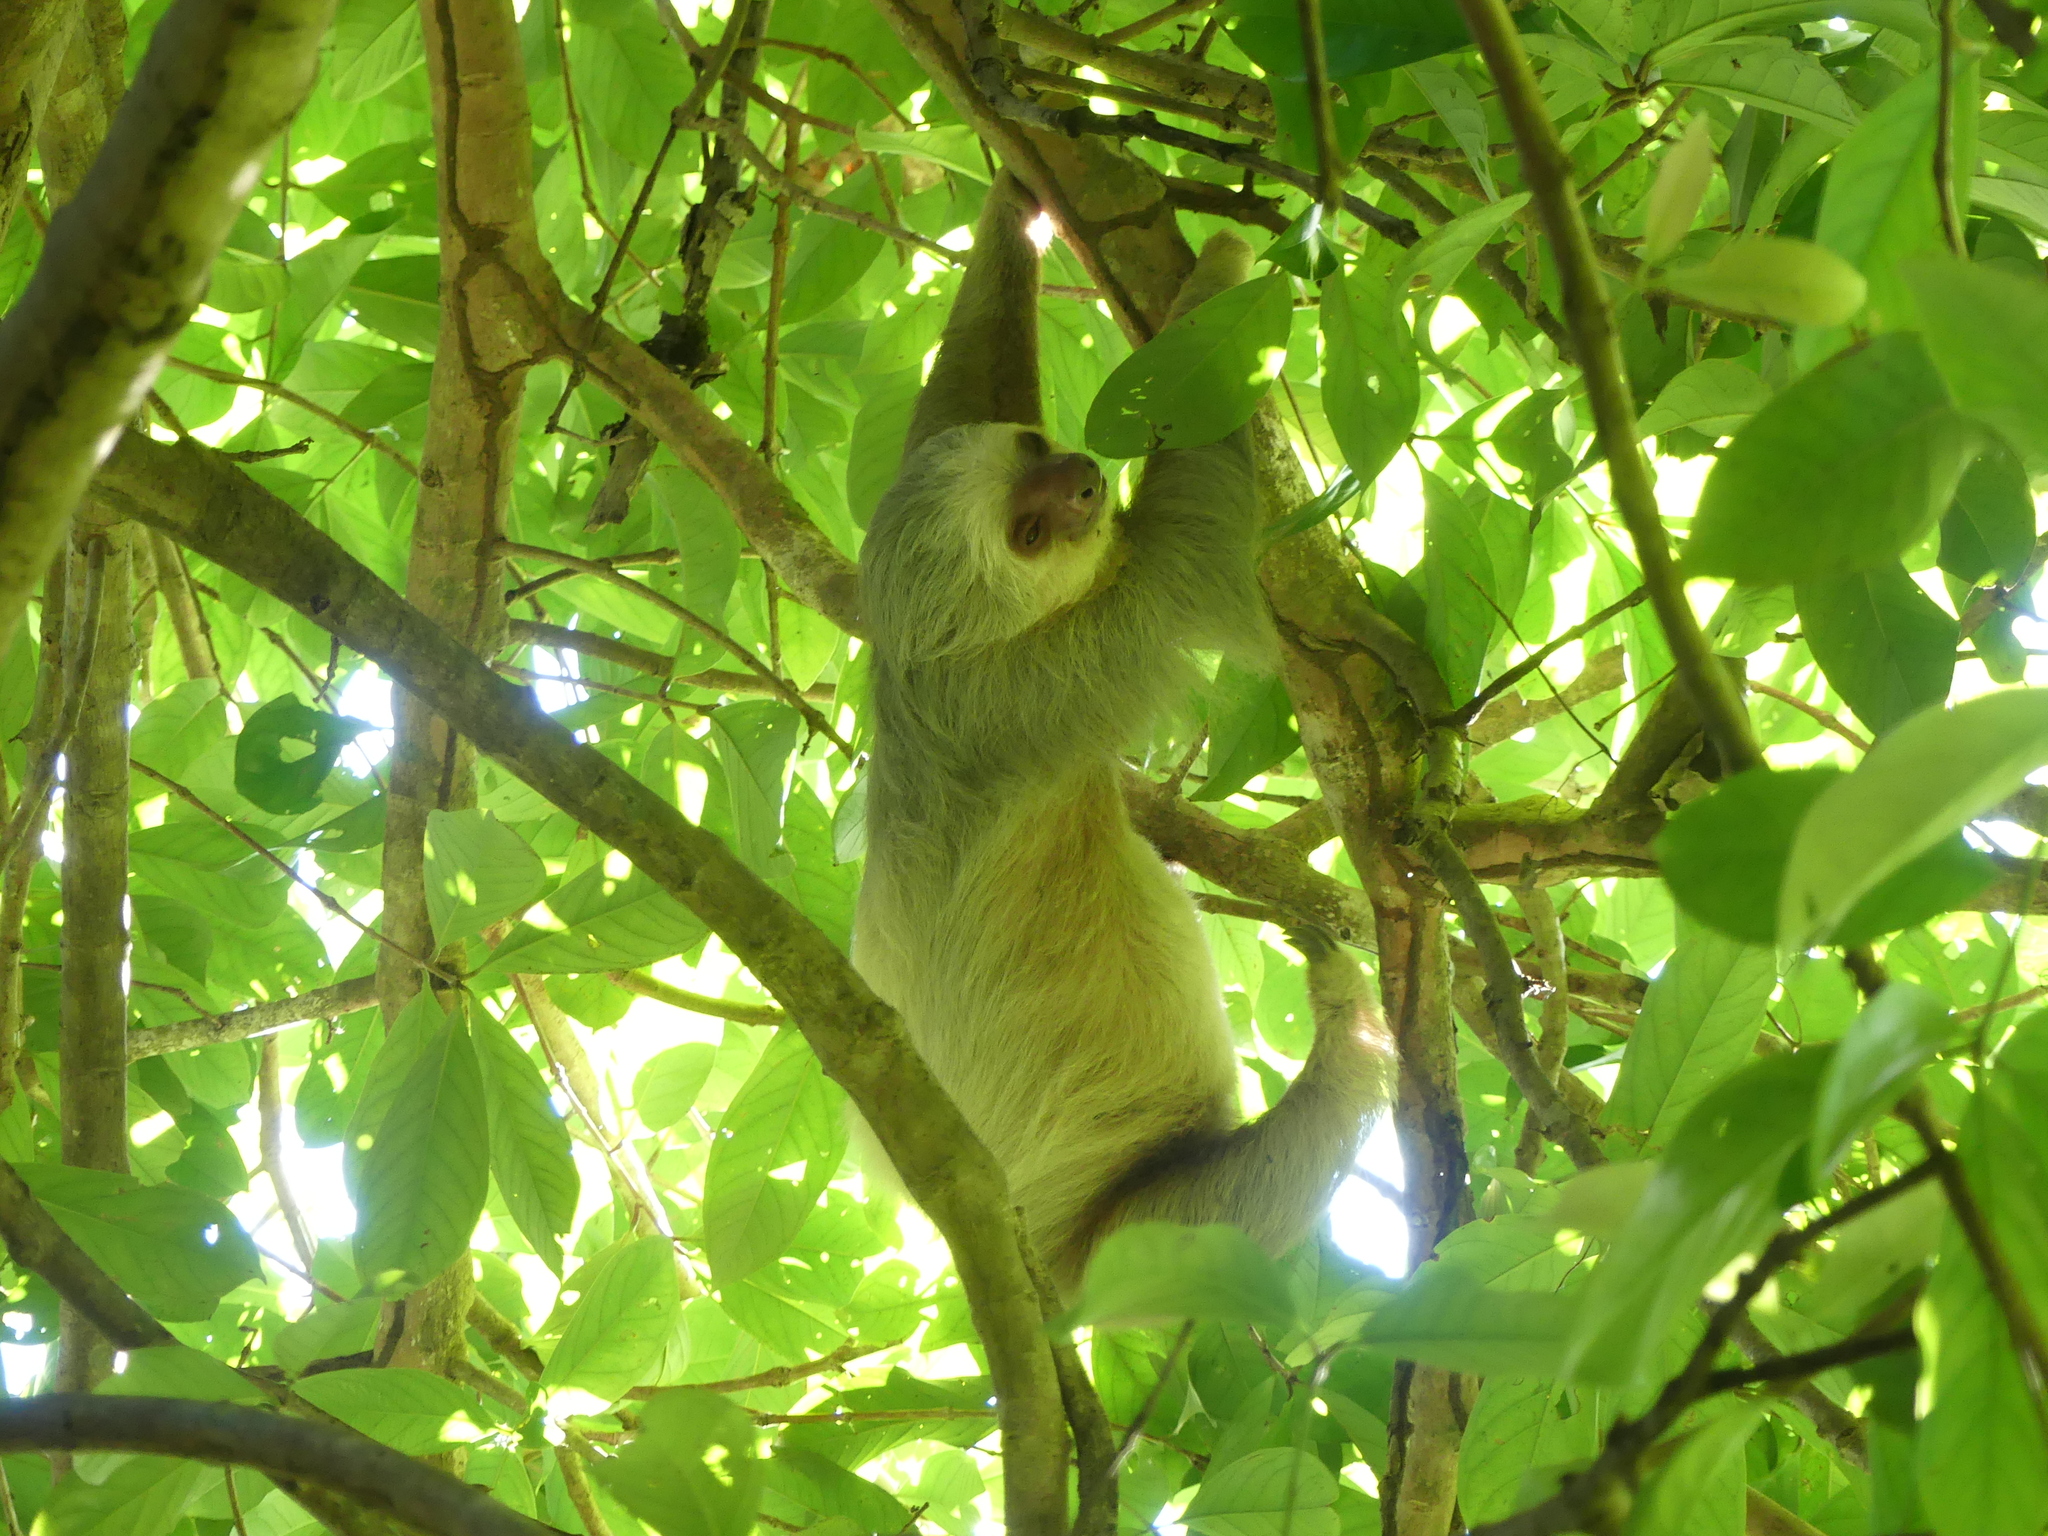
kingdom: Animalia
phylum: Chordata
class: Mammalia
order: Pilosa
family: Megalonychidae
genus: Choloepus
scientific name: Choloepus hoffmanni
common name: Hoffmann's two-toed sloth
